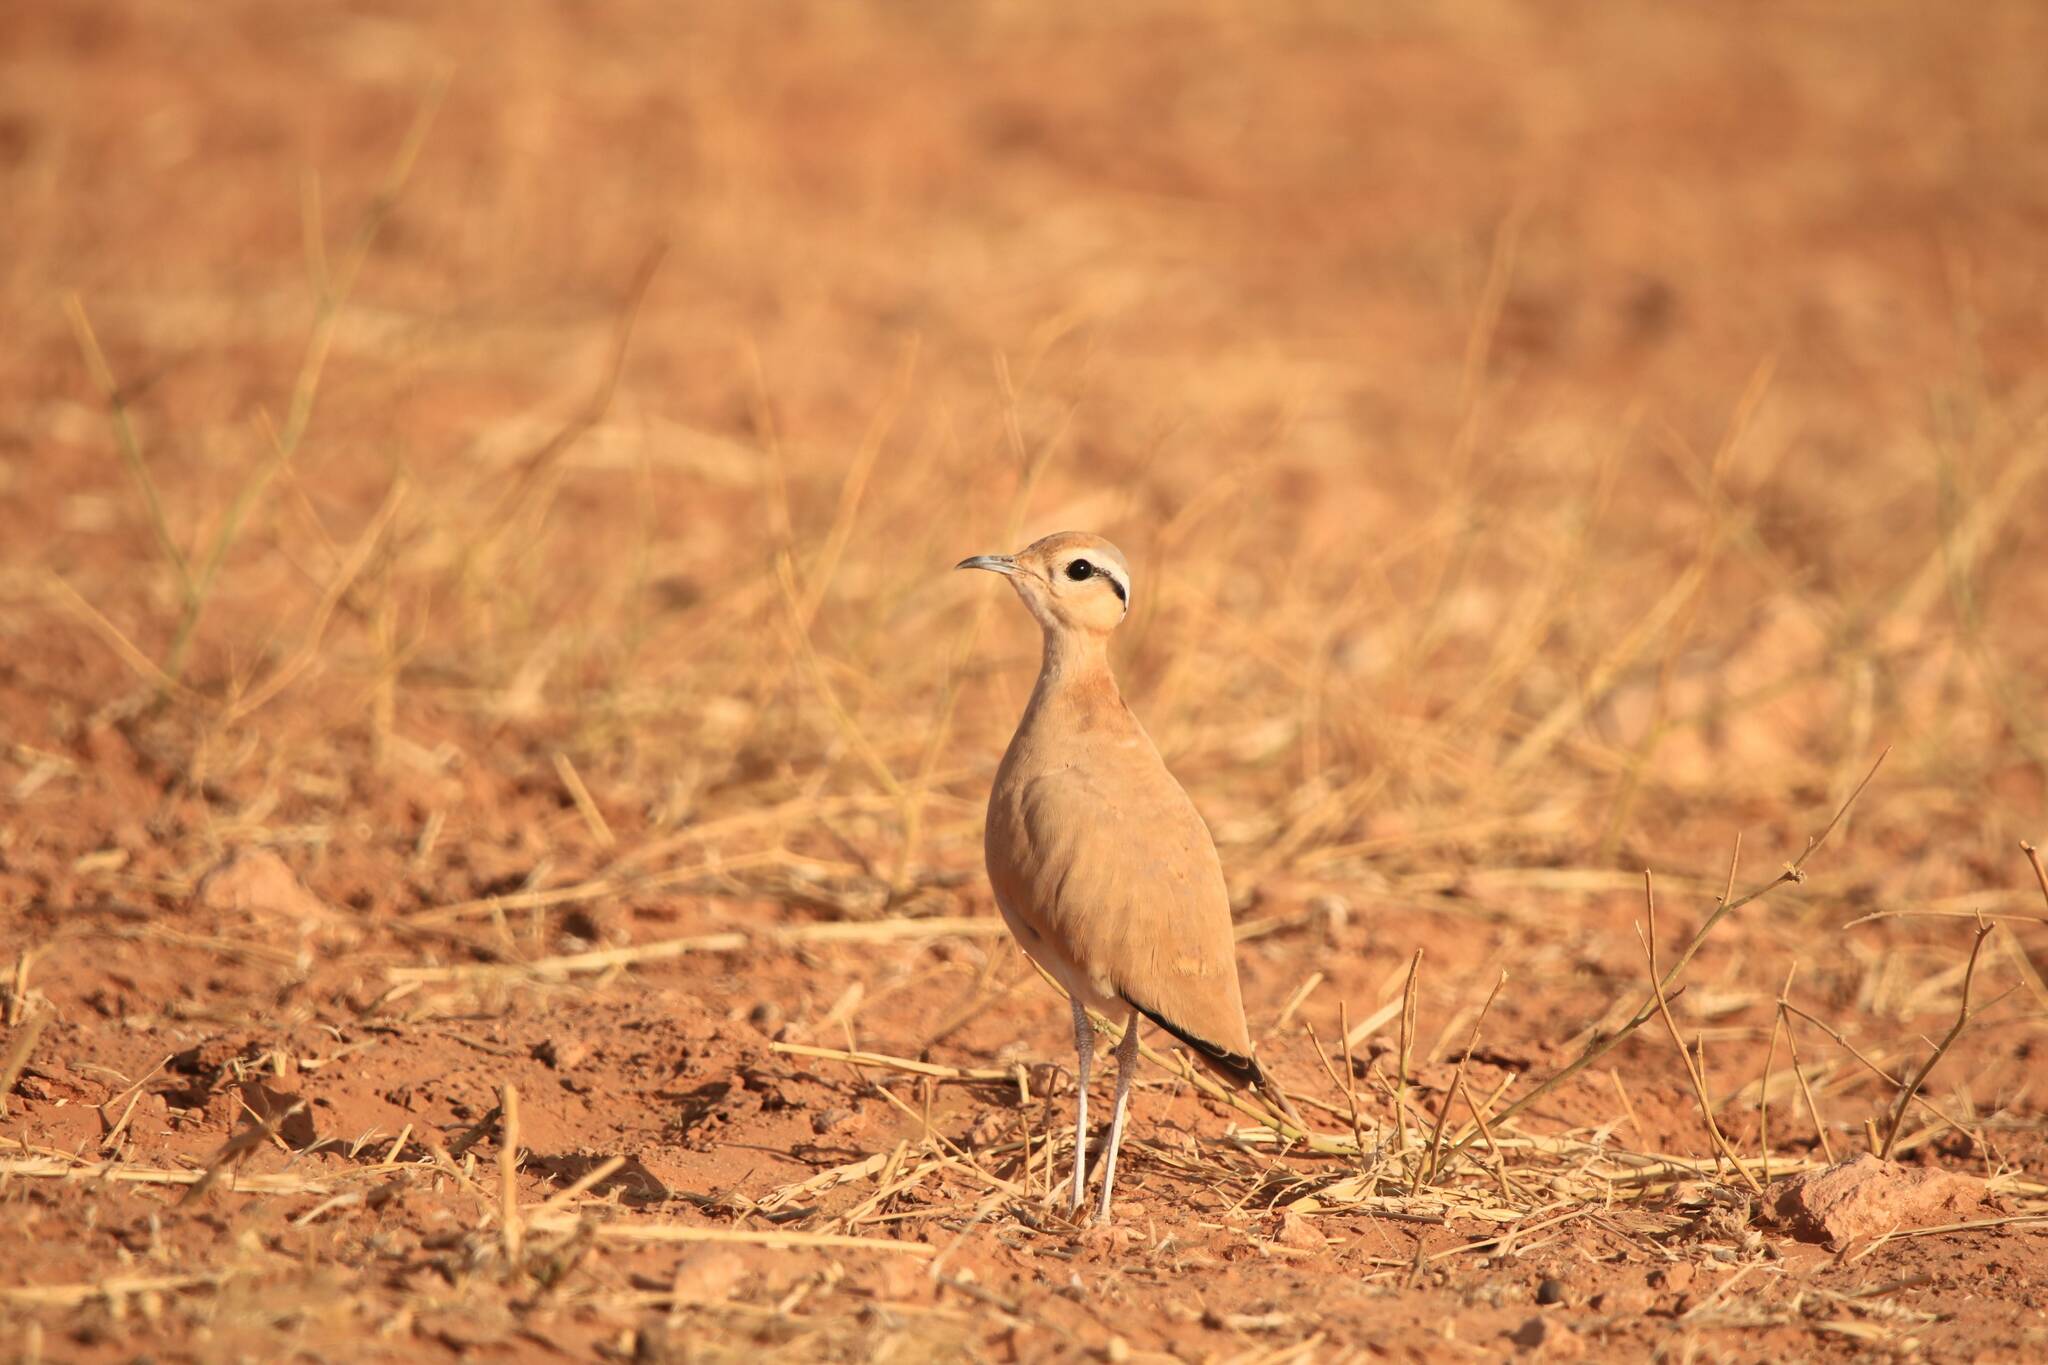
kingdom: Animalia
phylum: Chordata
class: Aves
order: Charadriiformes
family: Glareolidae
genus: Cursorius
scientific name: Cursorius cursor
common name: Cream-colored courser
